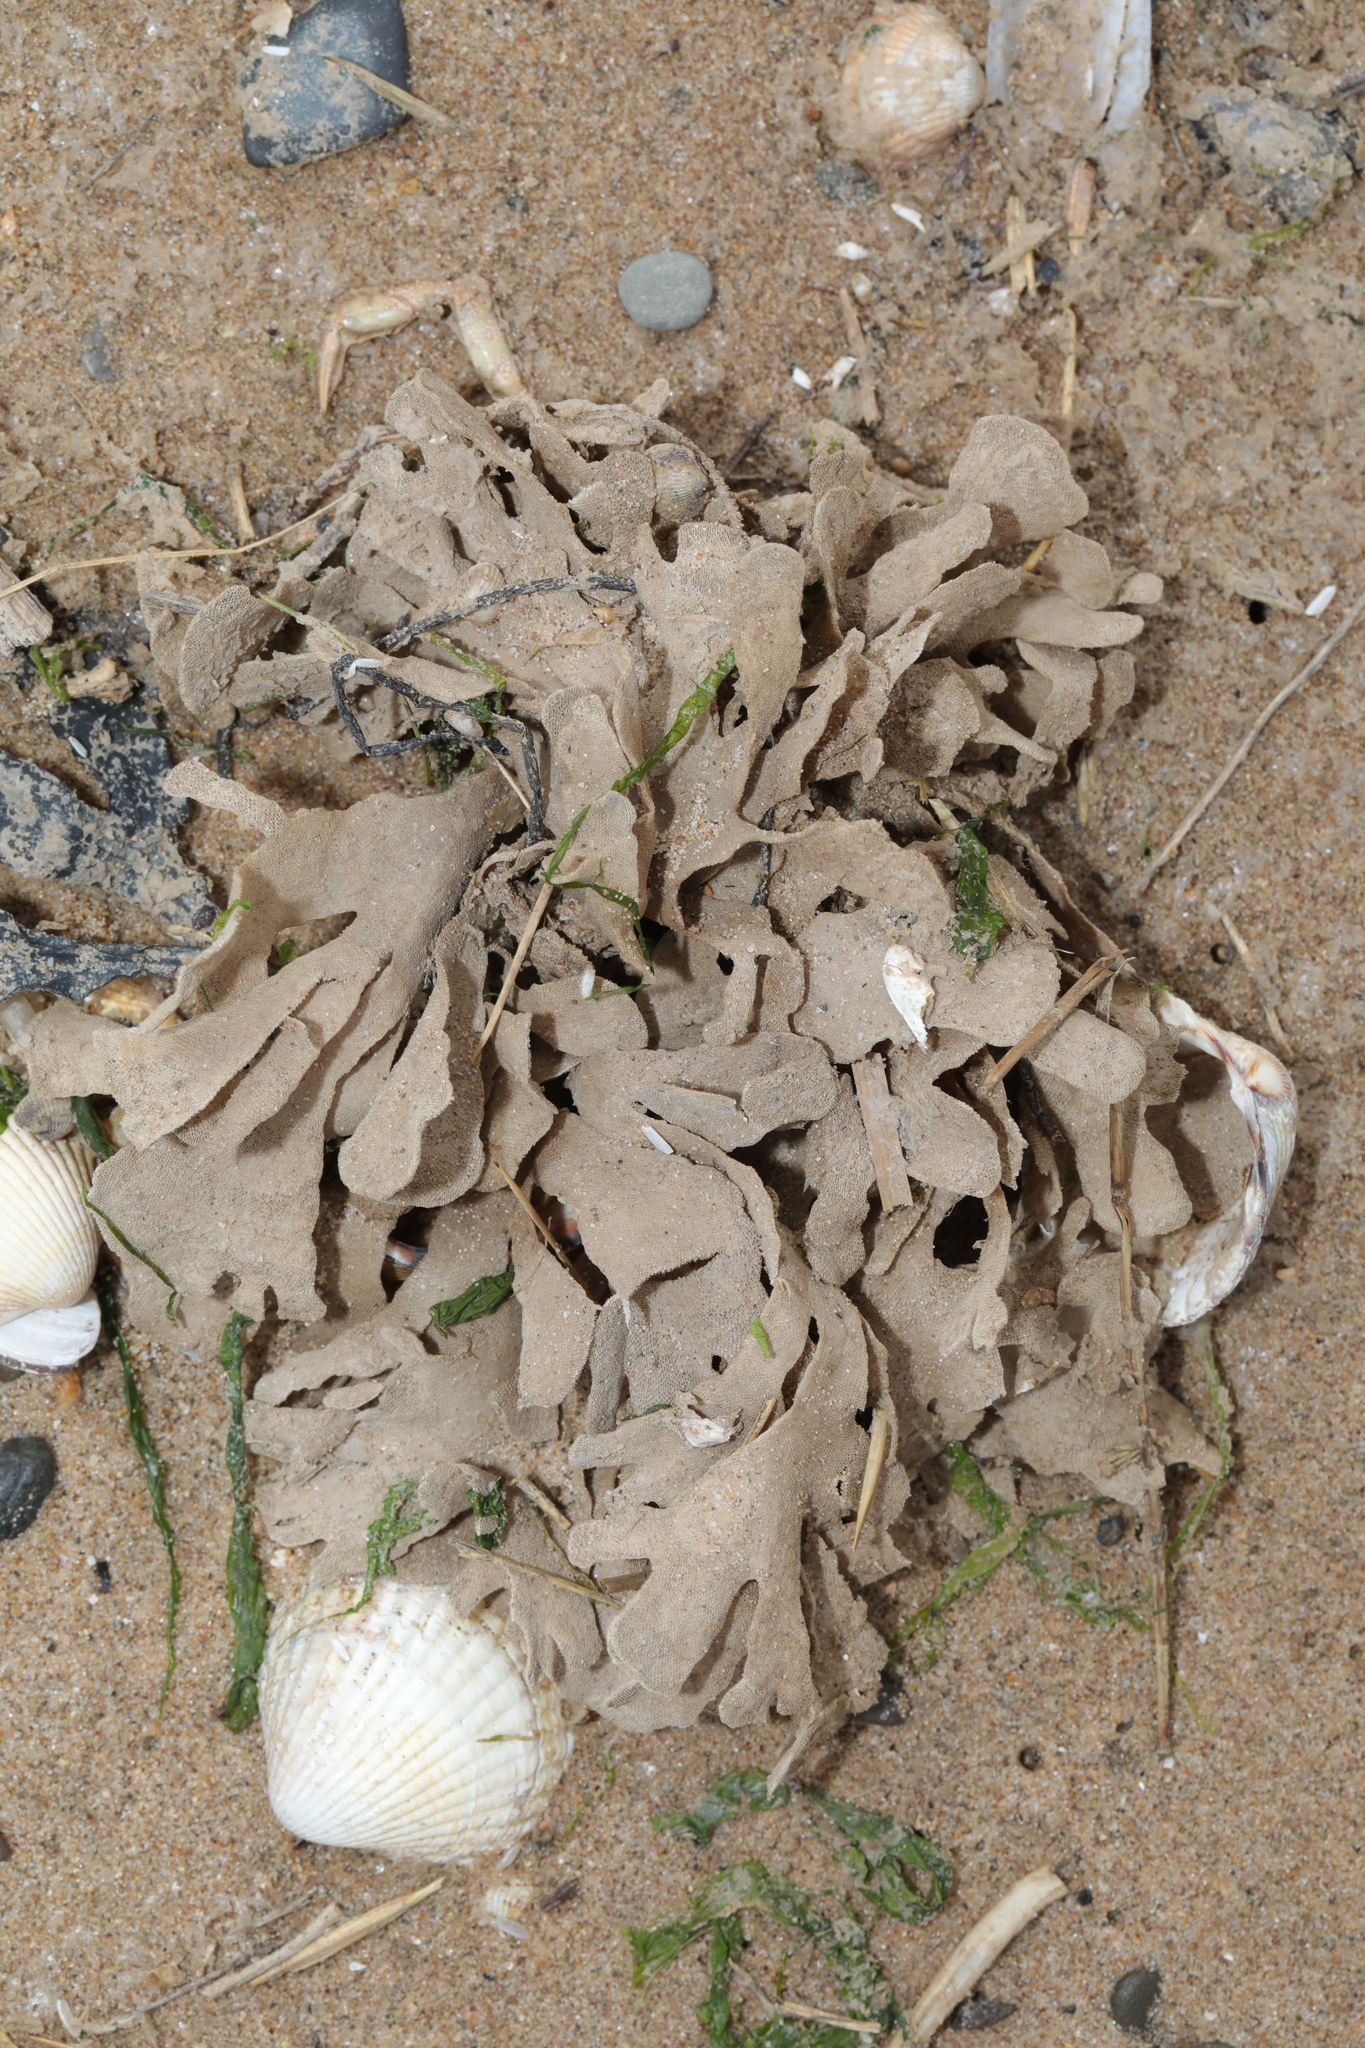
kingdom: Animalia
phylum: Bryozoa
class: Gymnolaemata
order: Cheilostomatida
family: Flustridae
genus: Flustra
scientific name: Flustra foliacea
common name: Hornwrack
